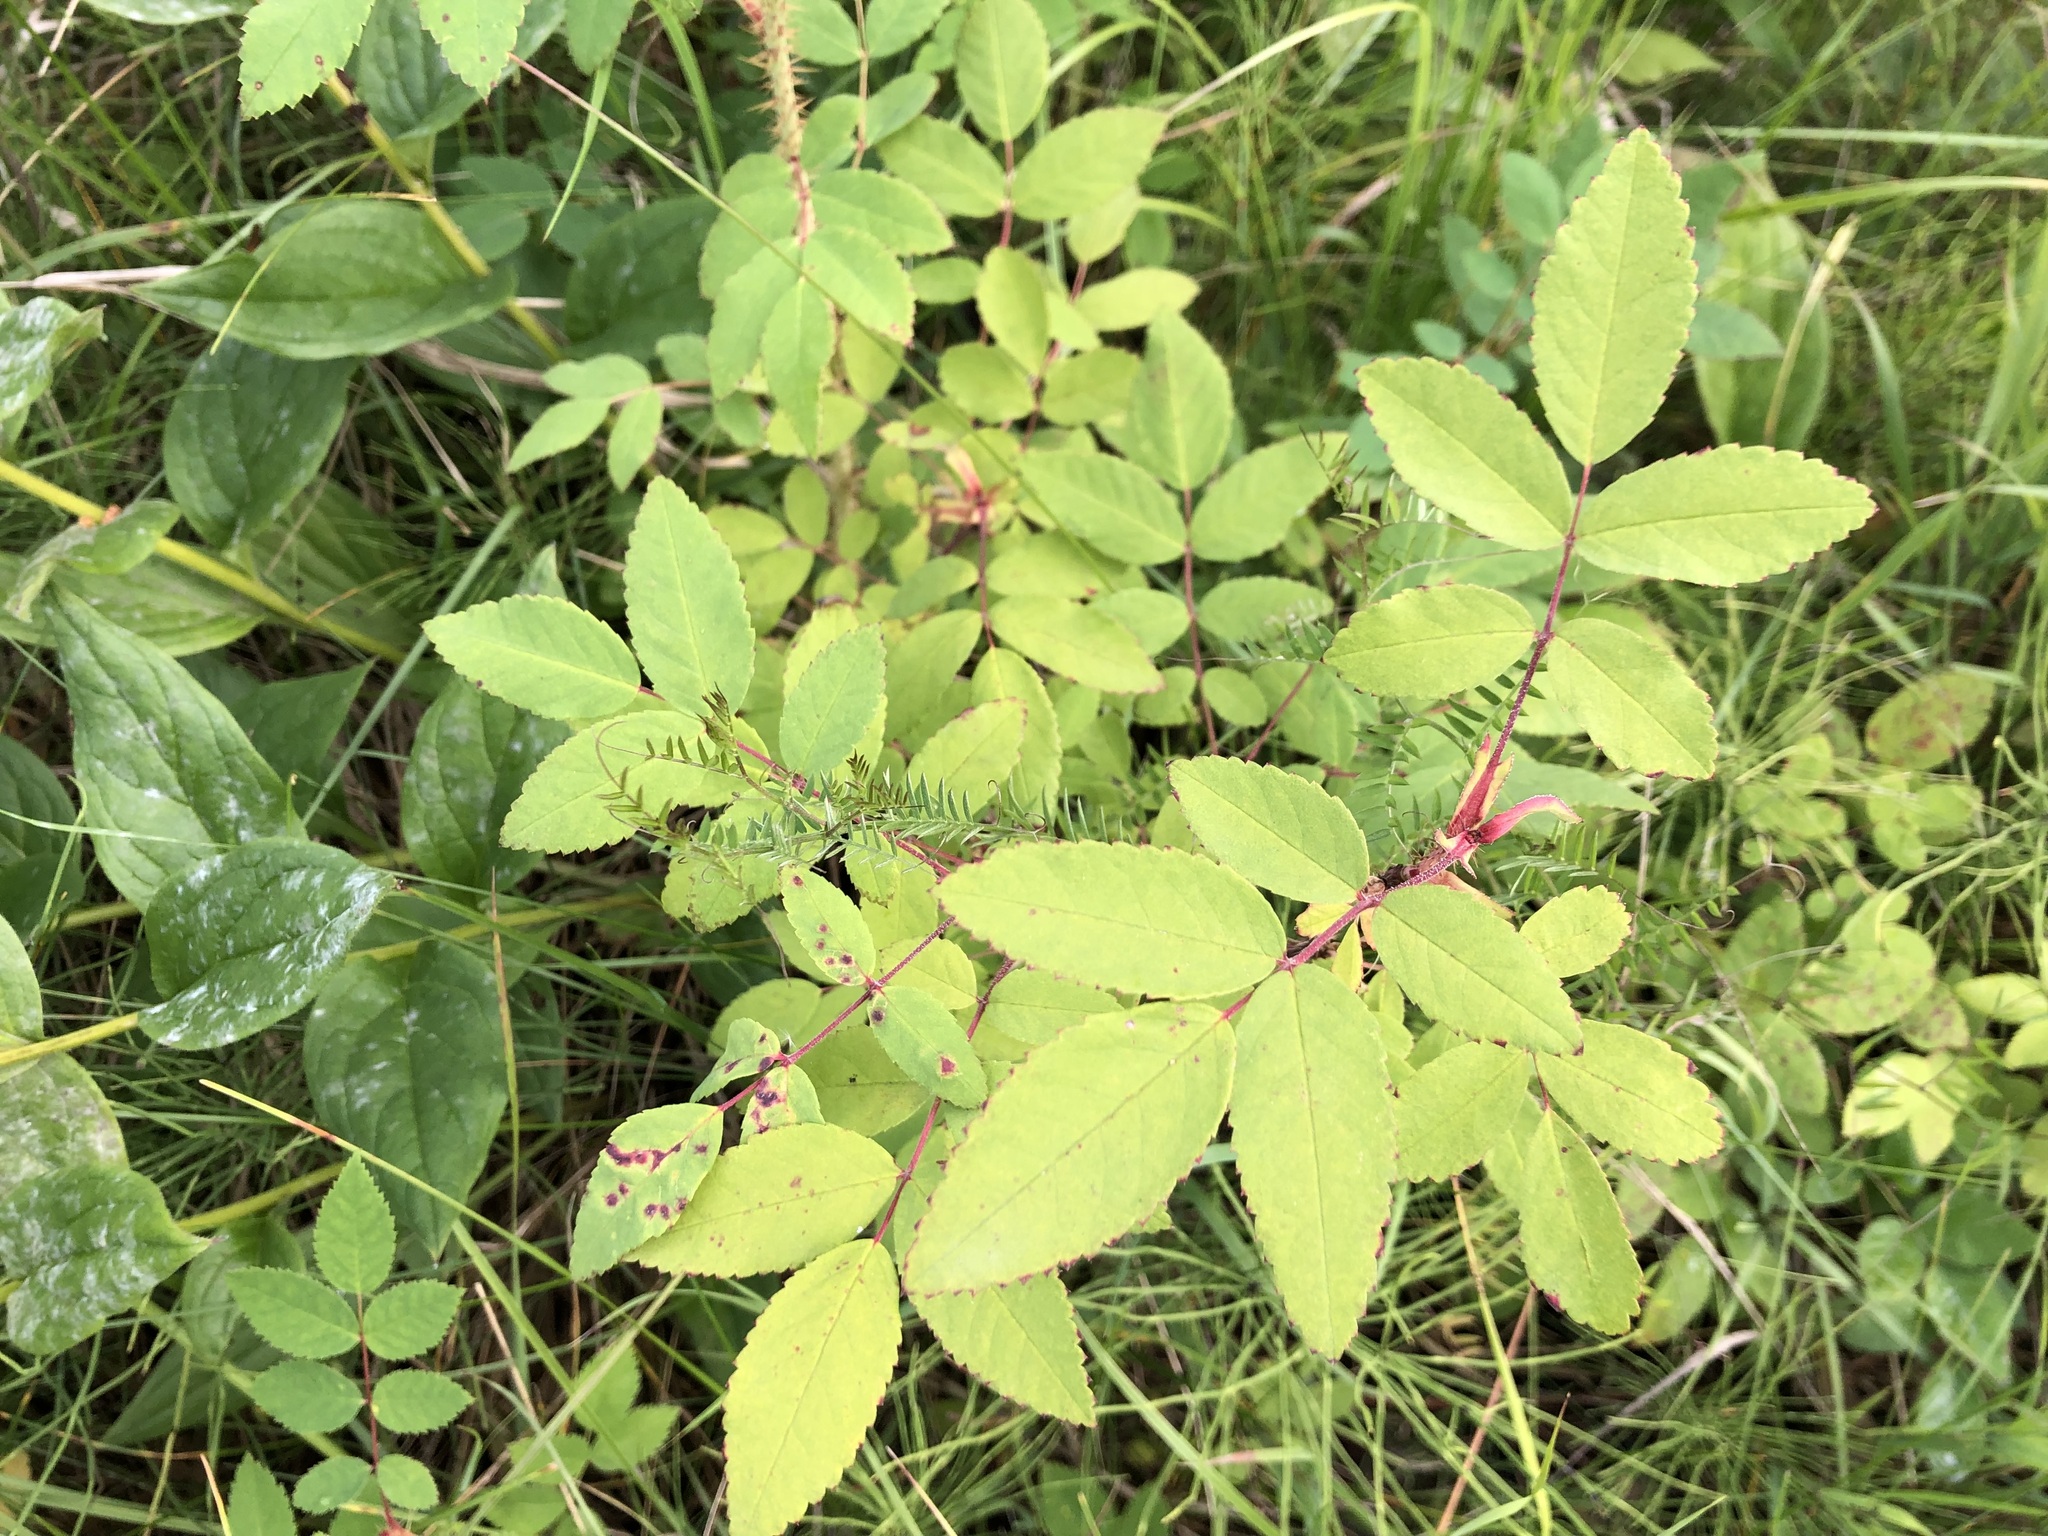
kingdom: Plantae
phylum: Tracheophyta
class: Magnoliopsida
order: Rosales
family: Rosaceae
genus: Rosa
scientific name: Rosa acicularis
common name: Prickly rose
